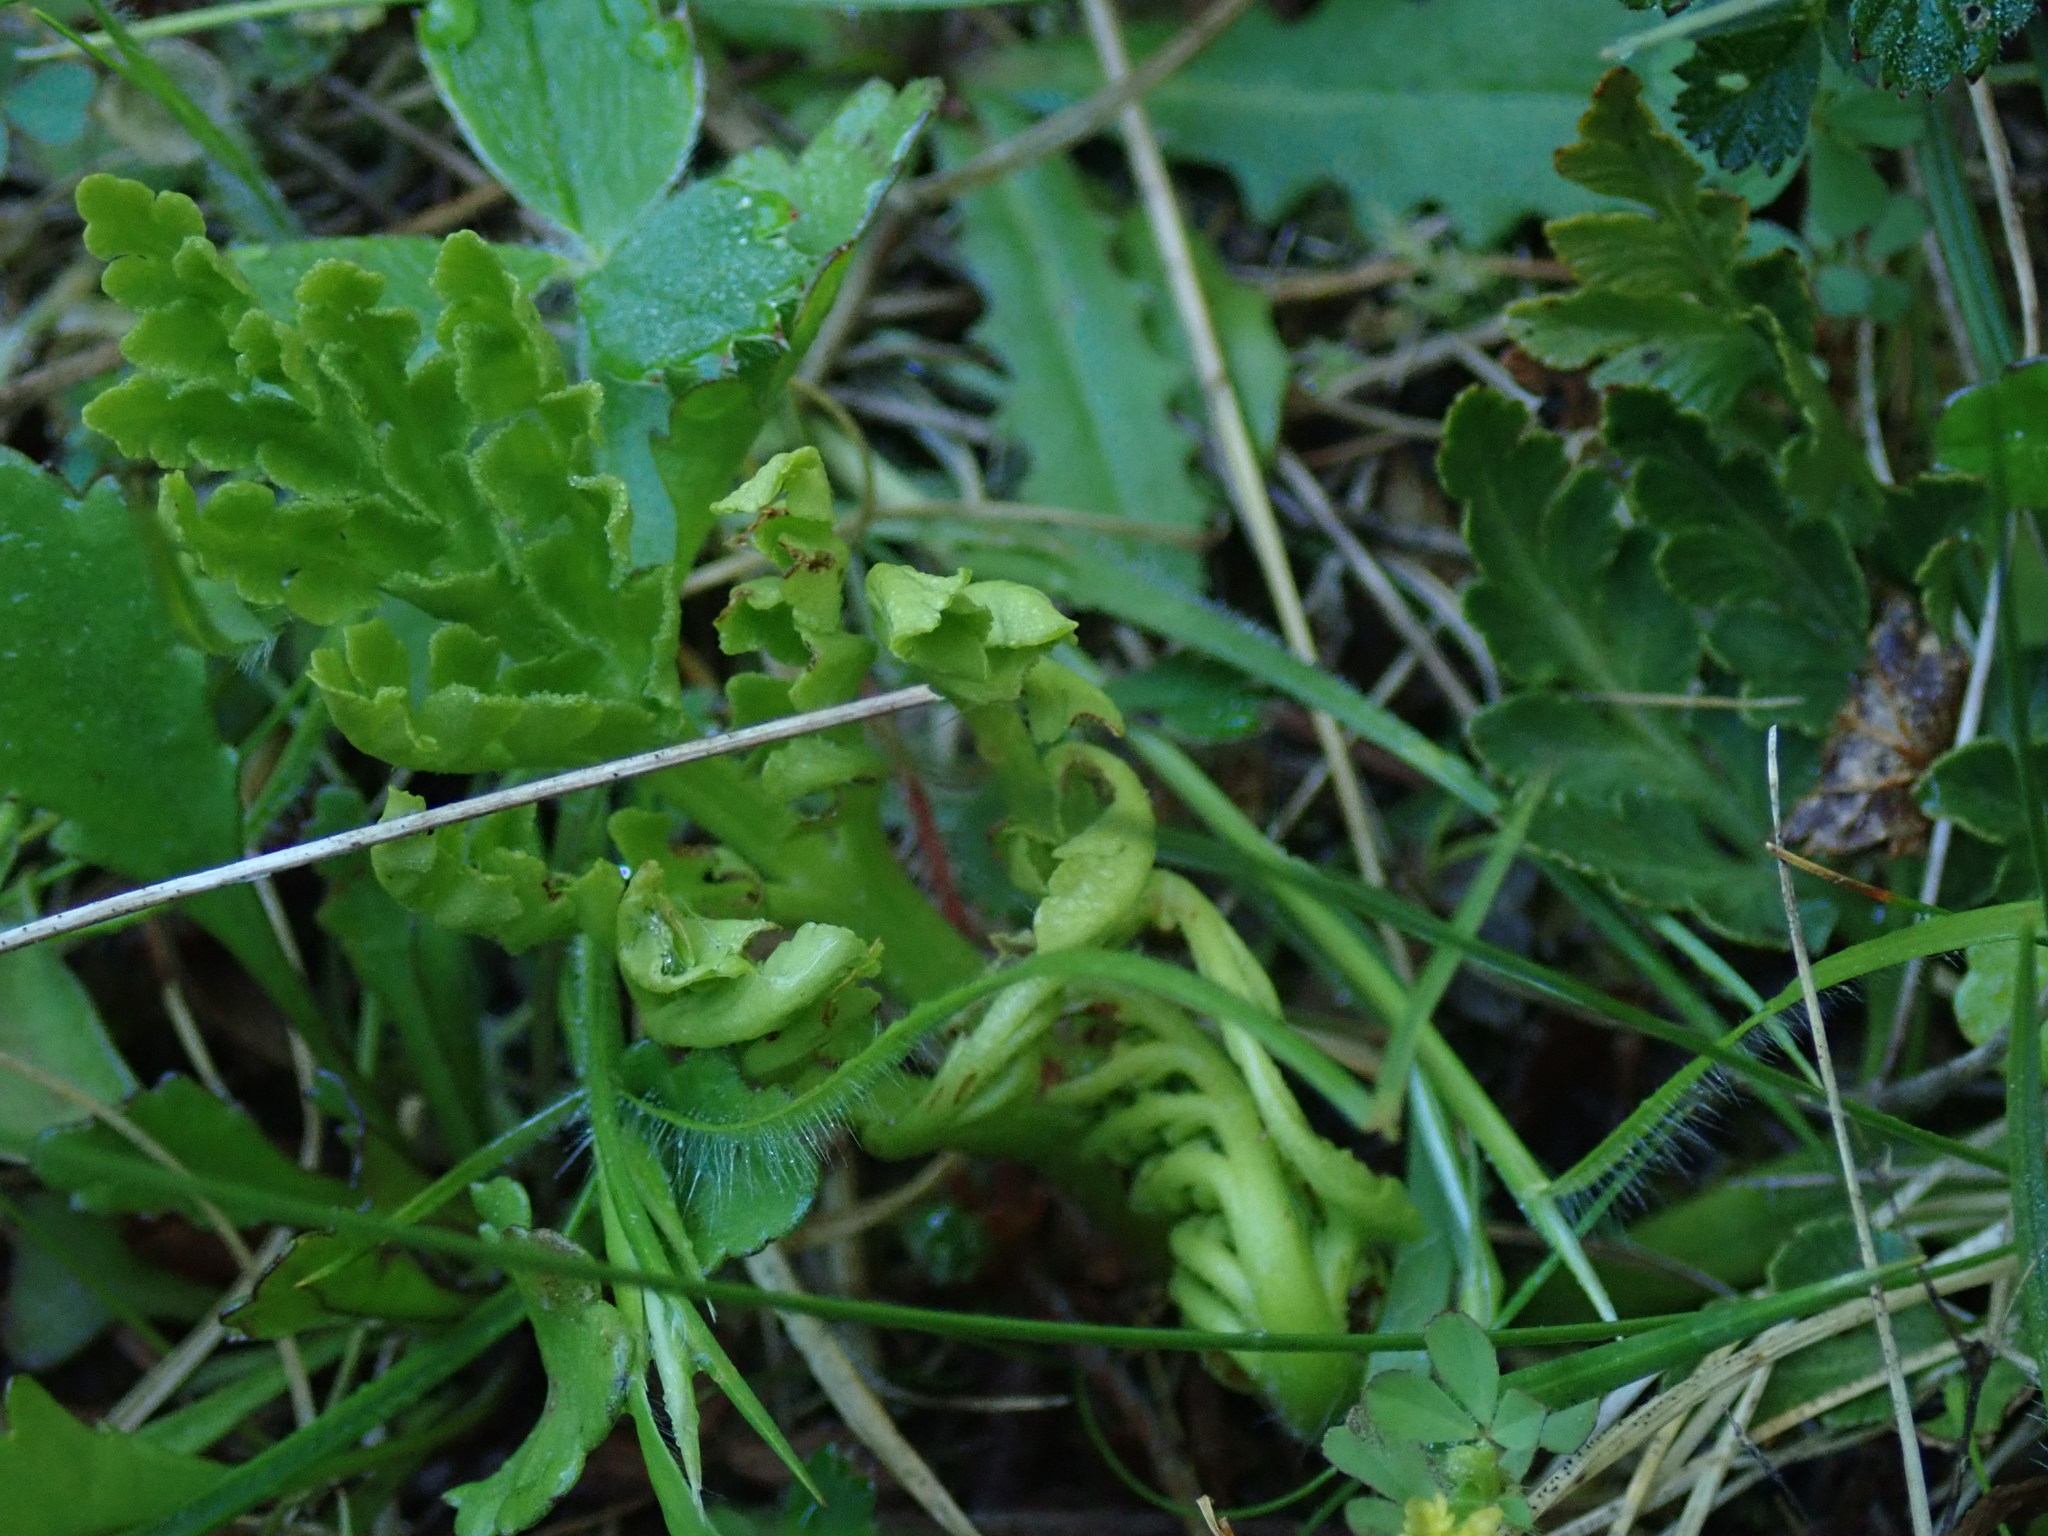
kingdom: Plantae
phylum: Tracheophyta
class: Polypodiopsida
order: Ophioglossales
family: Ophioglossaceae
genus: Sceptridium
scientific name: Sceptridium multifidum
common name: Leathery grape fern
